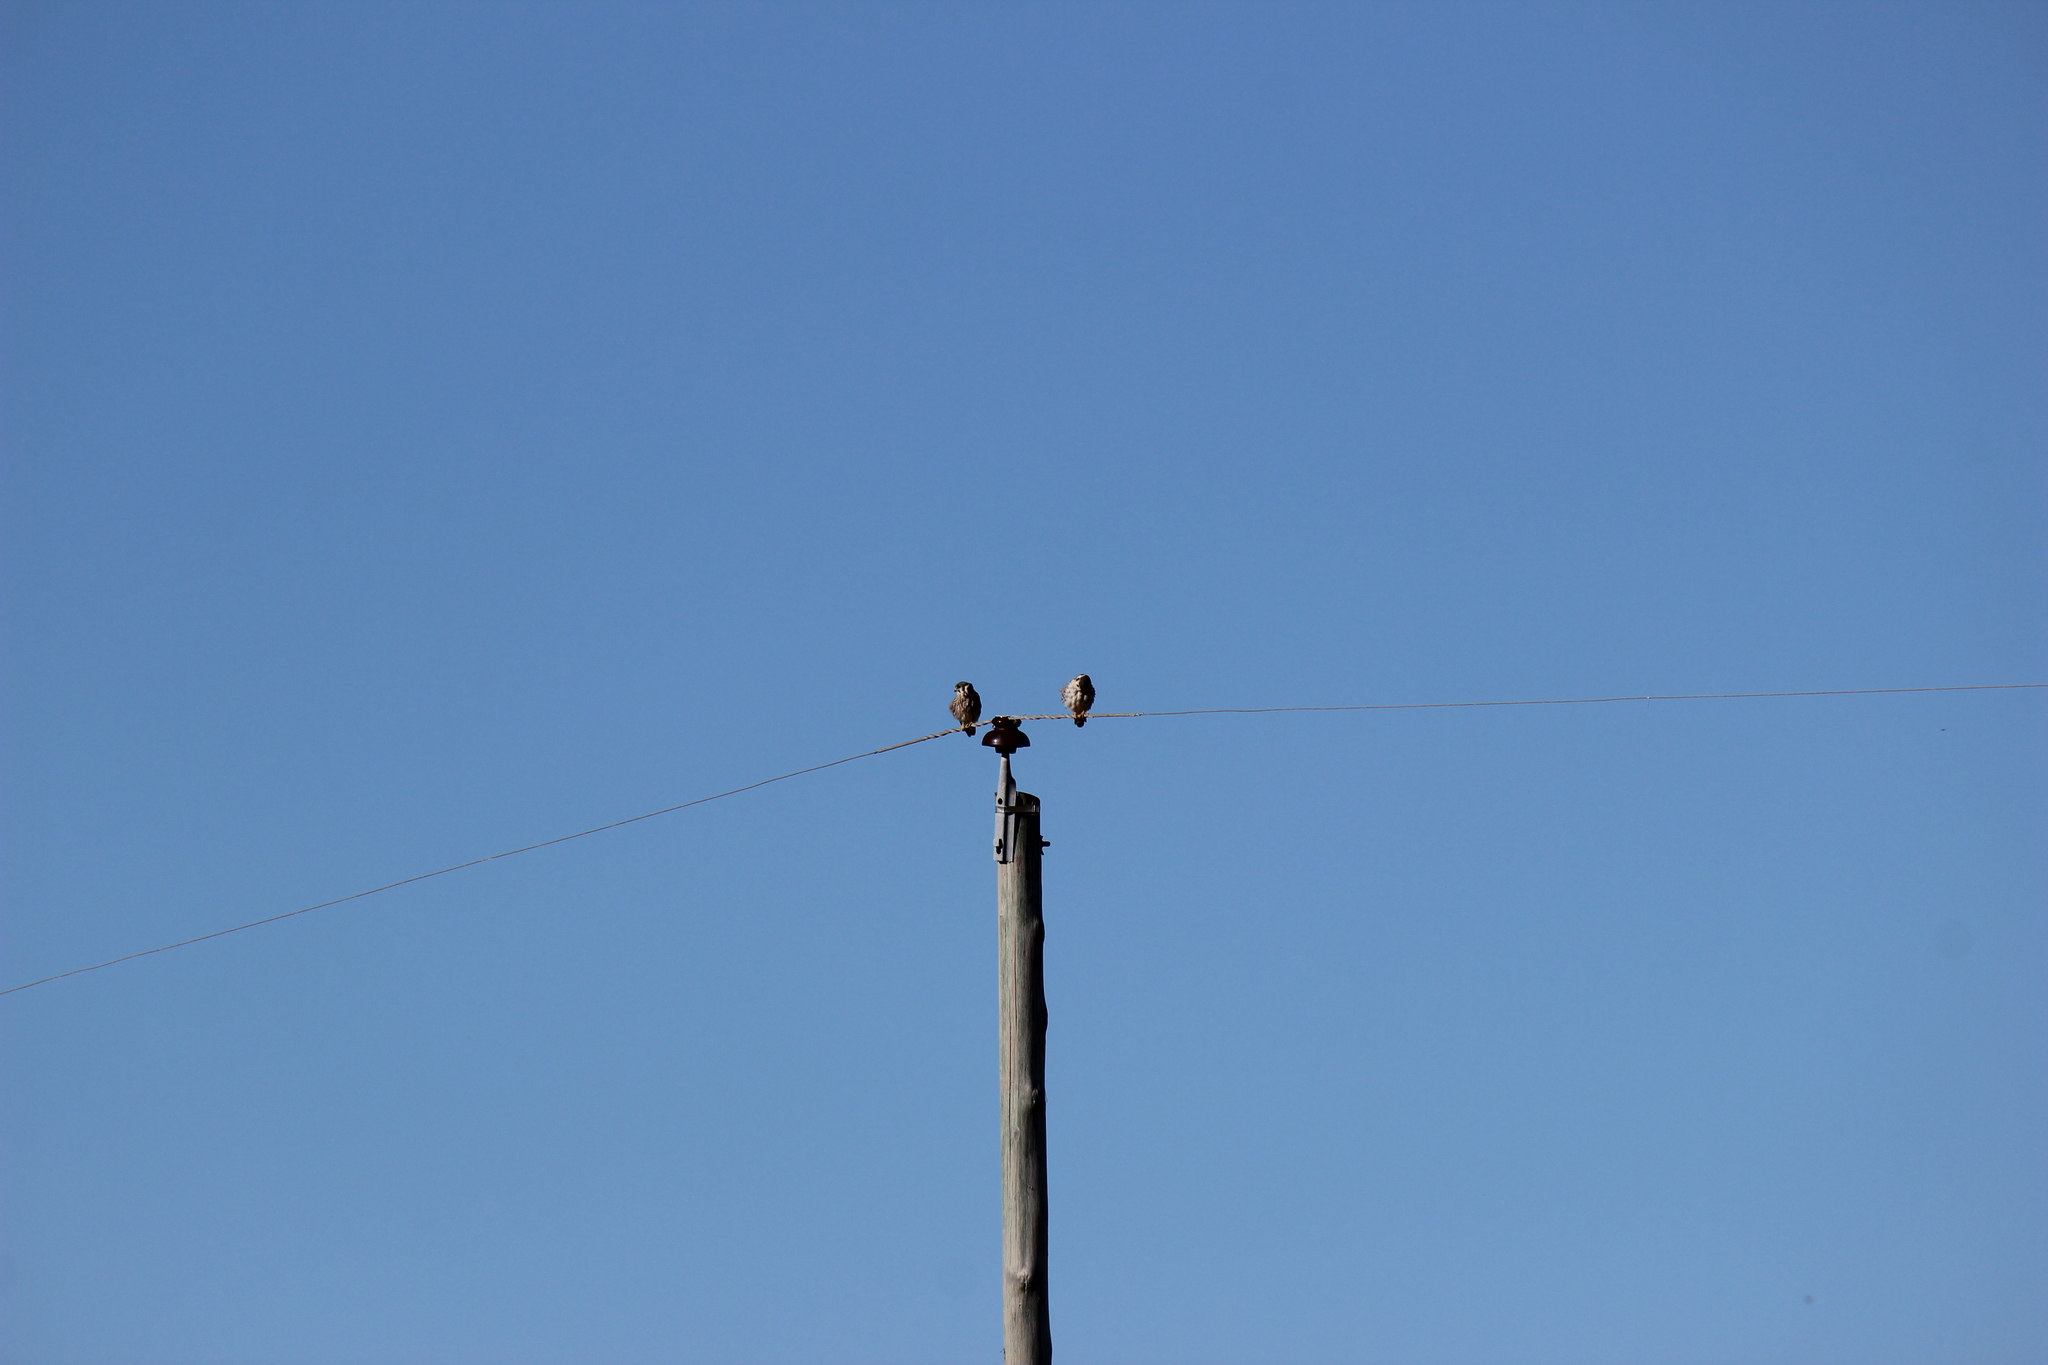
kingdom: Animalia
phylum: Chordata
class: Aves
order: Falconiformes
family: Falconidae
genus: Falco
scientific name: Falco sparverius
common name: American kestrel
